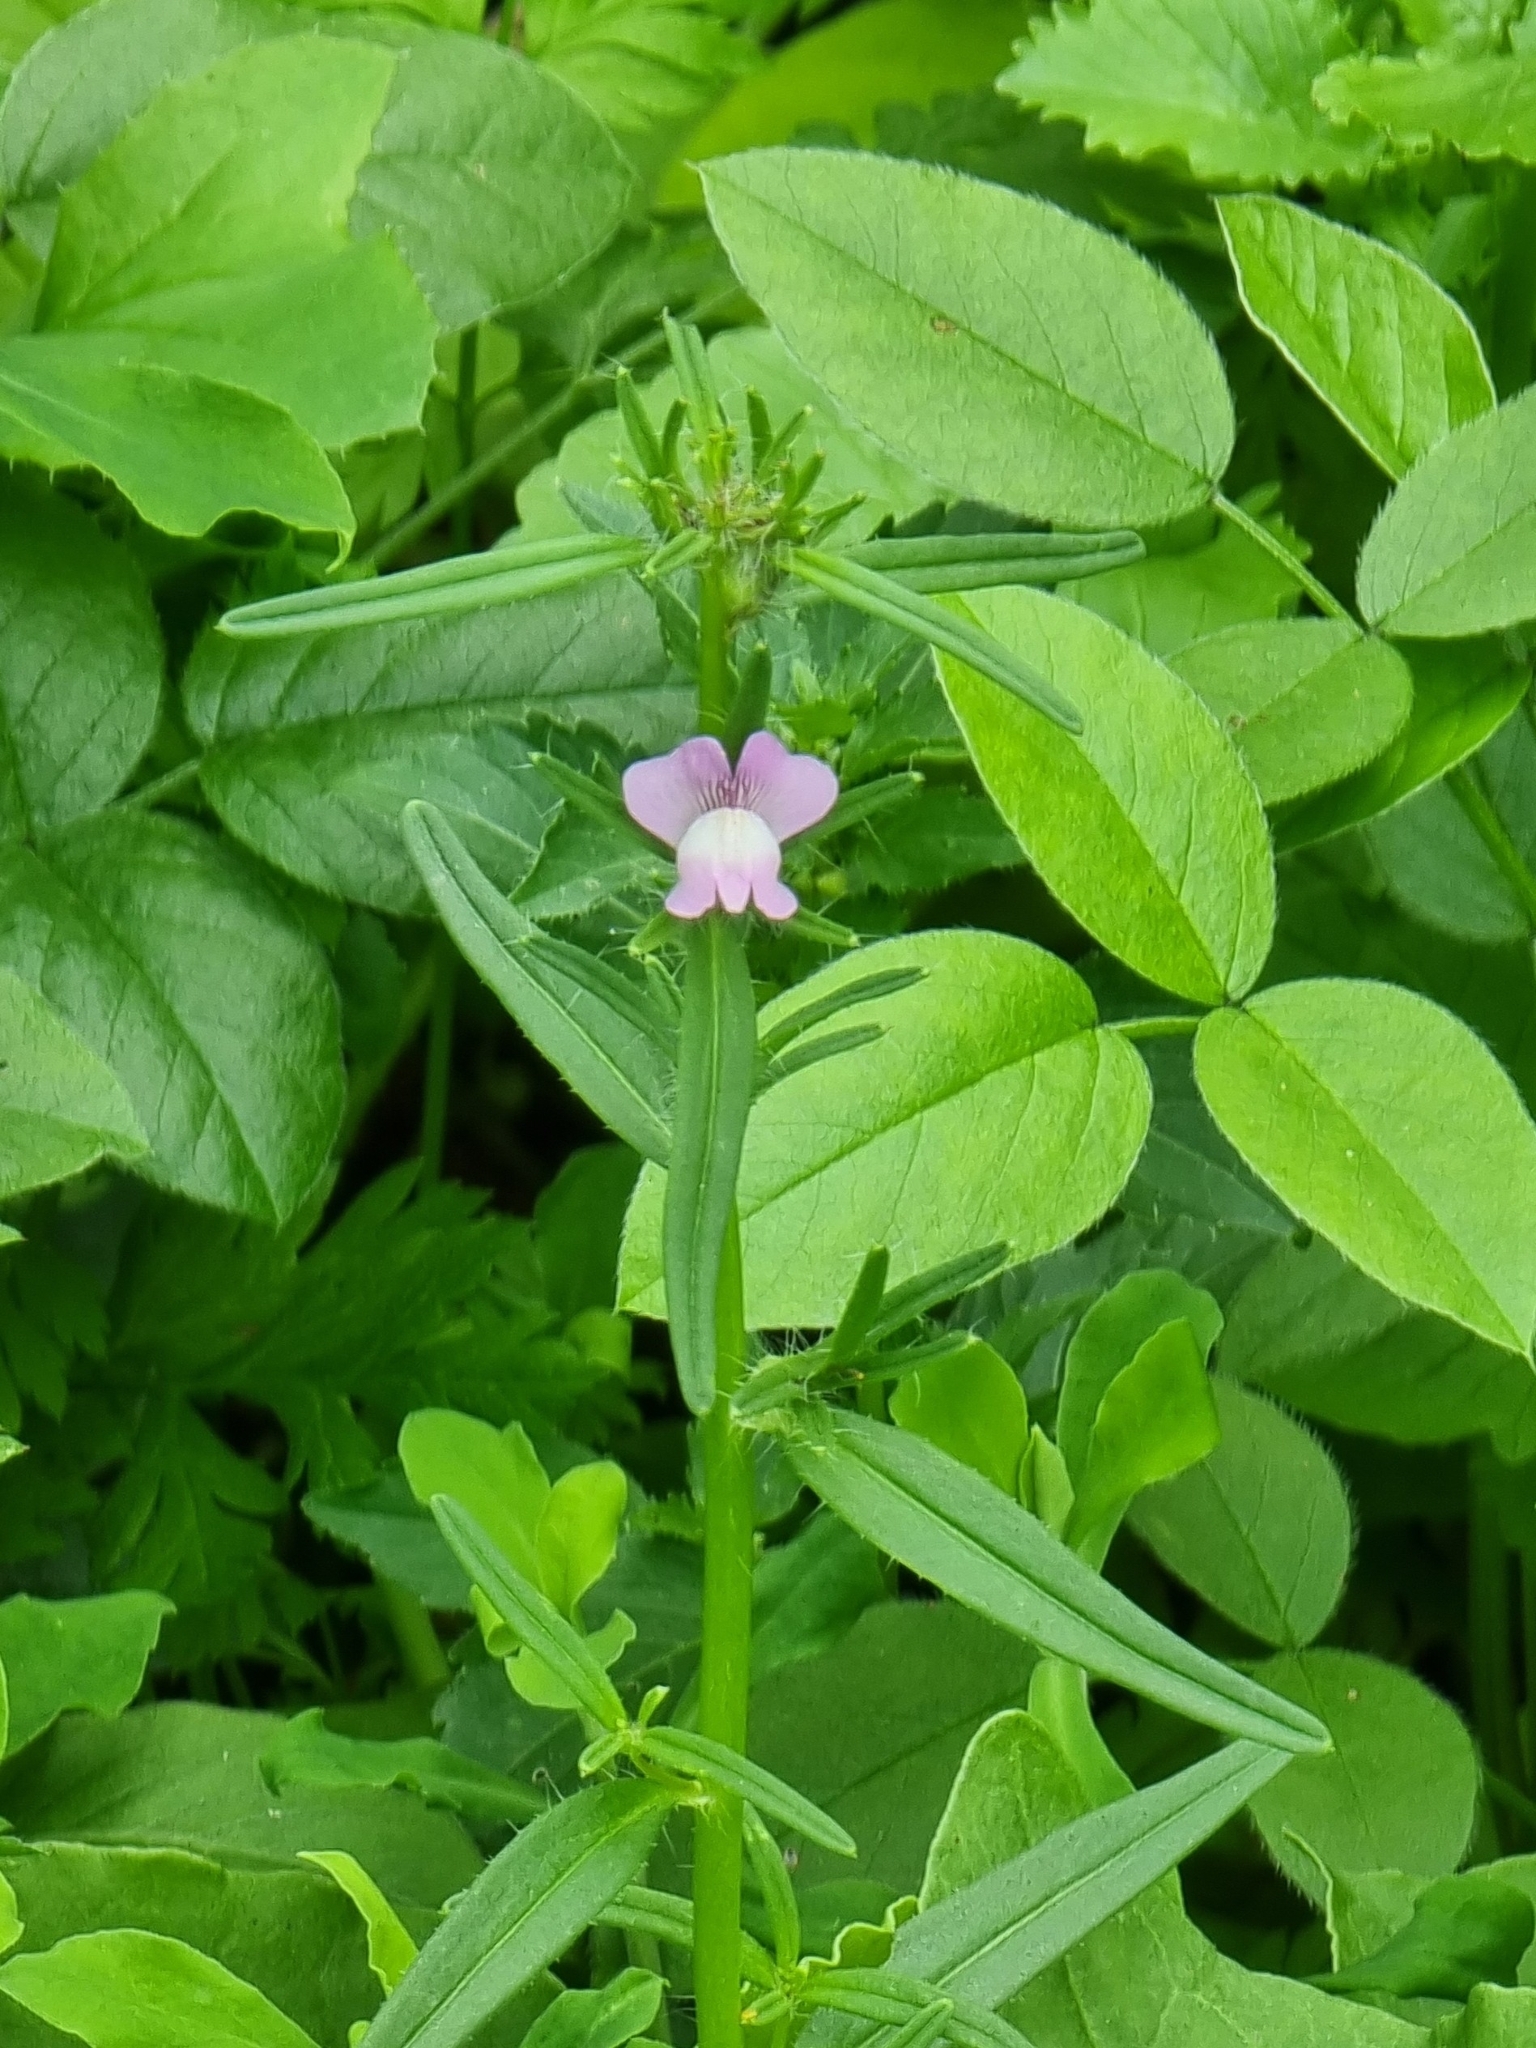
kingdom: Plantae
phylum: Tracheophyta
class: Magnoliopsida
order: Lamiales
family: Plantaginaceae
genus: Misopates
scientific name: Misopates orontium
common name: Weasel's-snout
